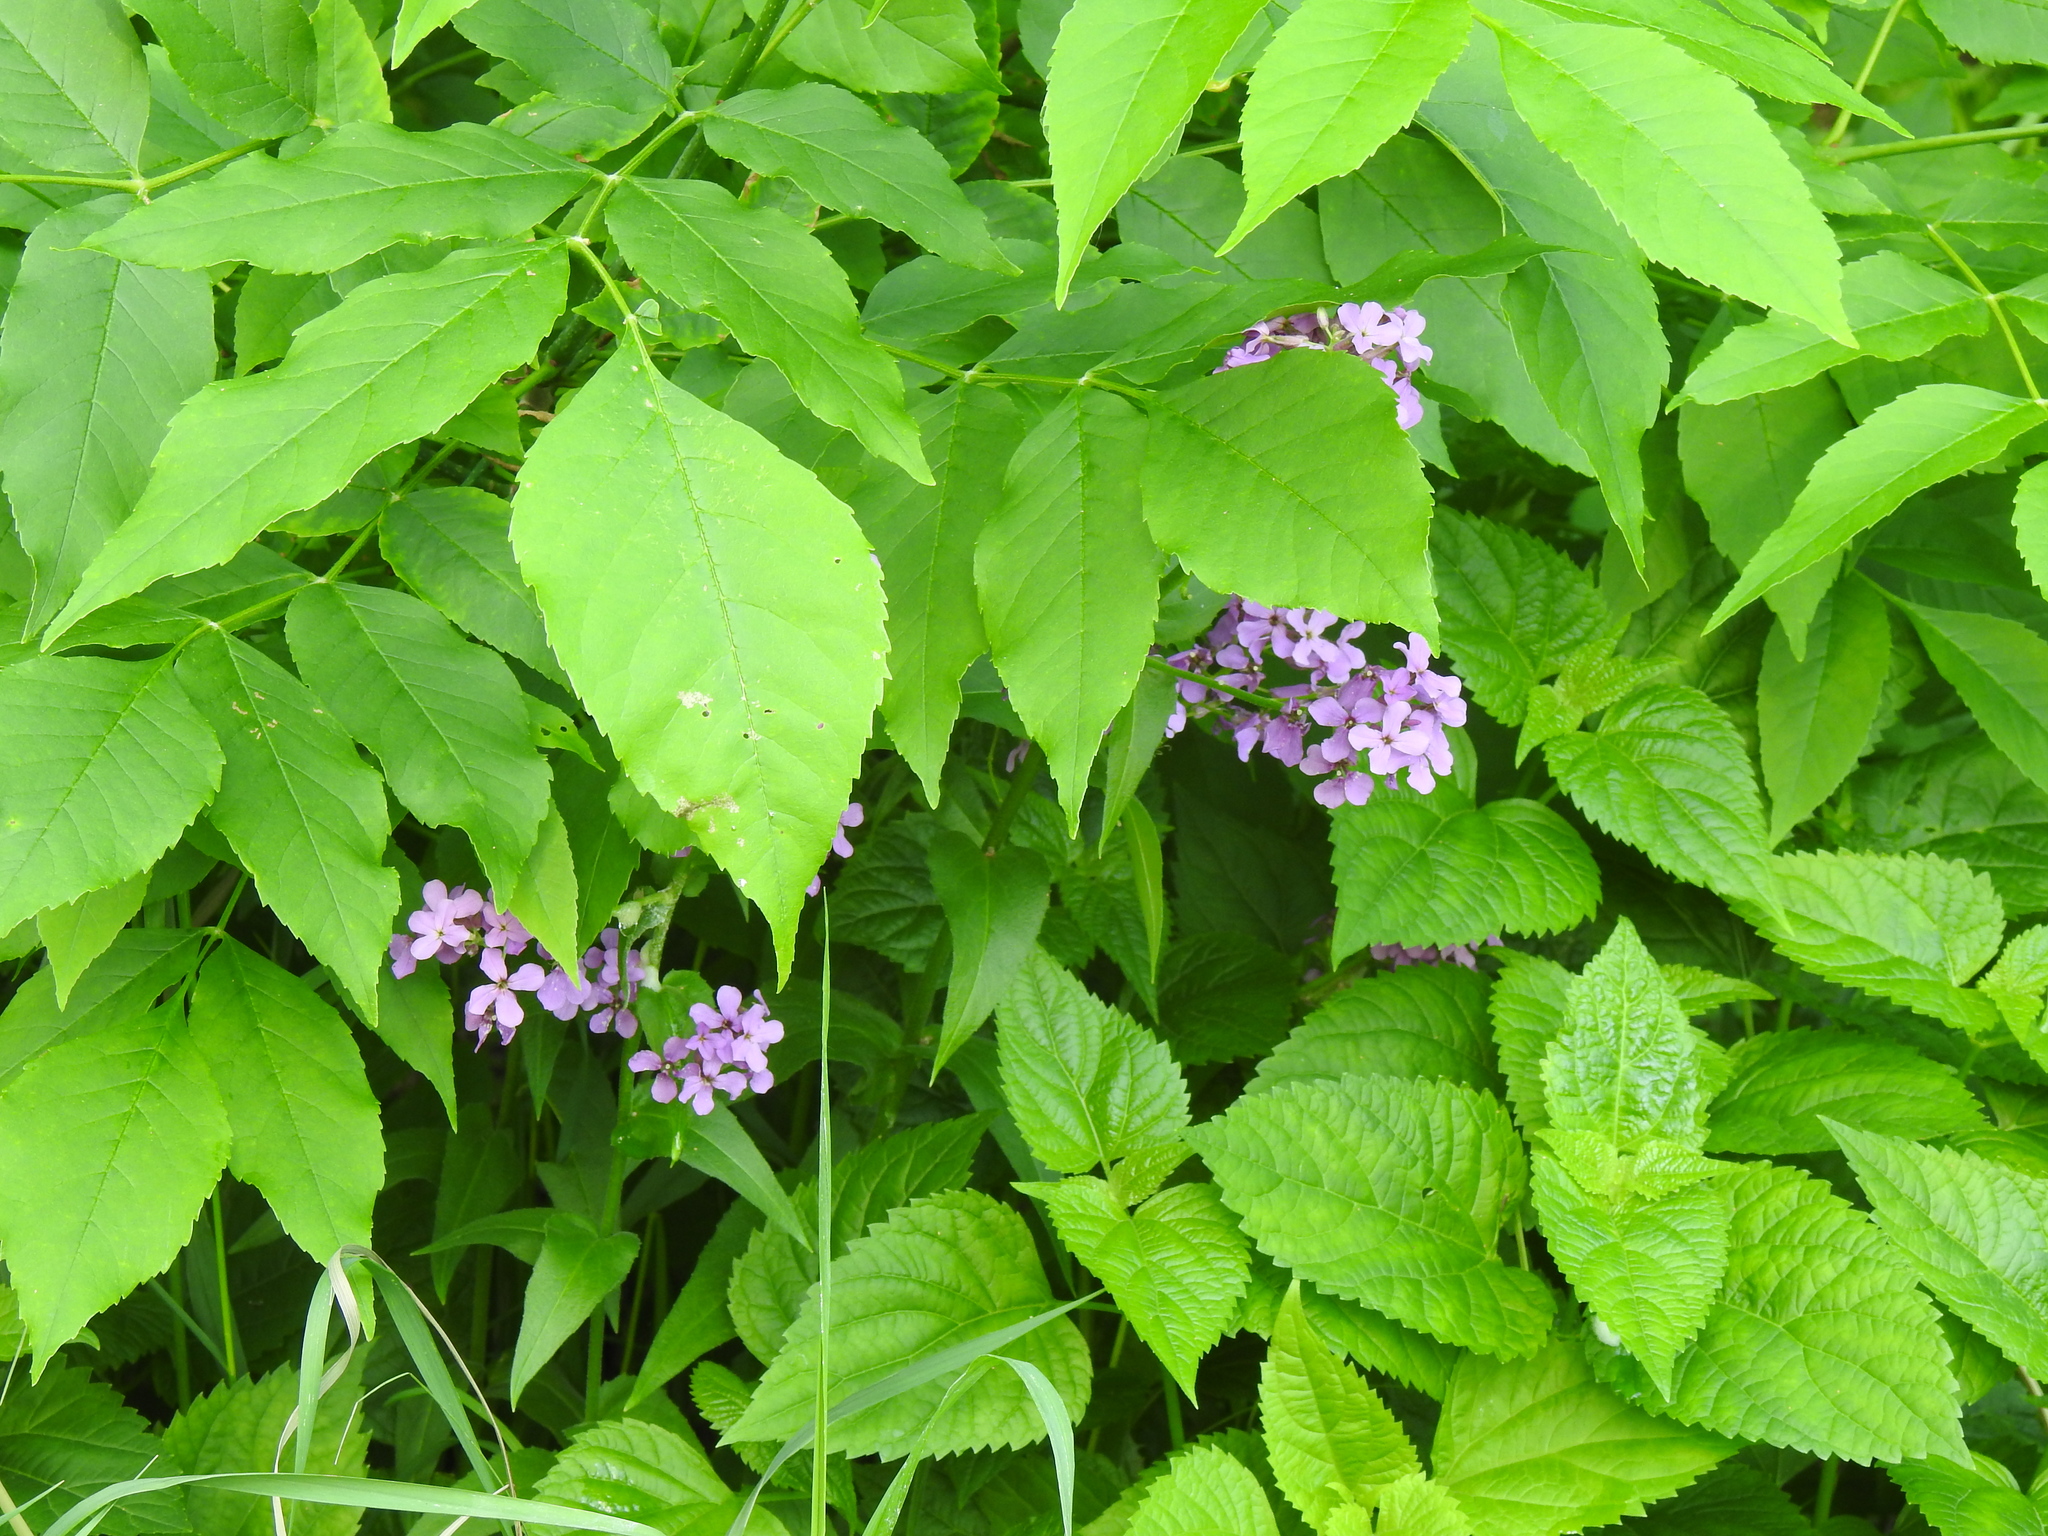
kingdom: Plantae
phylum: Tracheophyta
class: Magnoliopsida
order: Brassicales
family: Brassicaceae
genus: Hesperis
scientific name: Hesperis matronalis
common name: Dame's-violet
